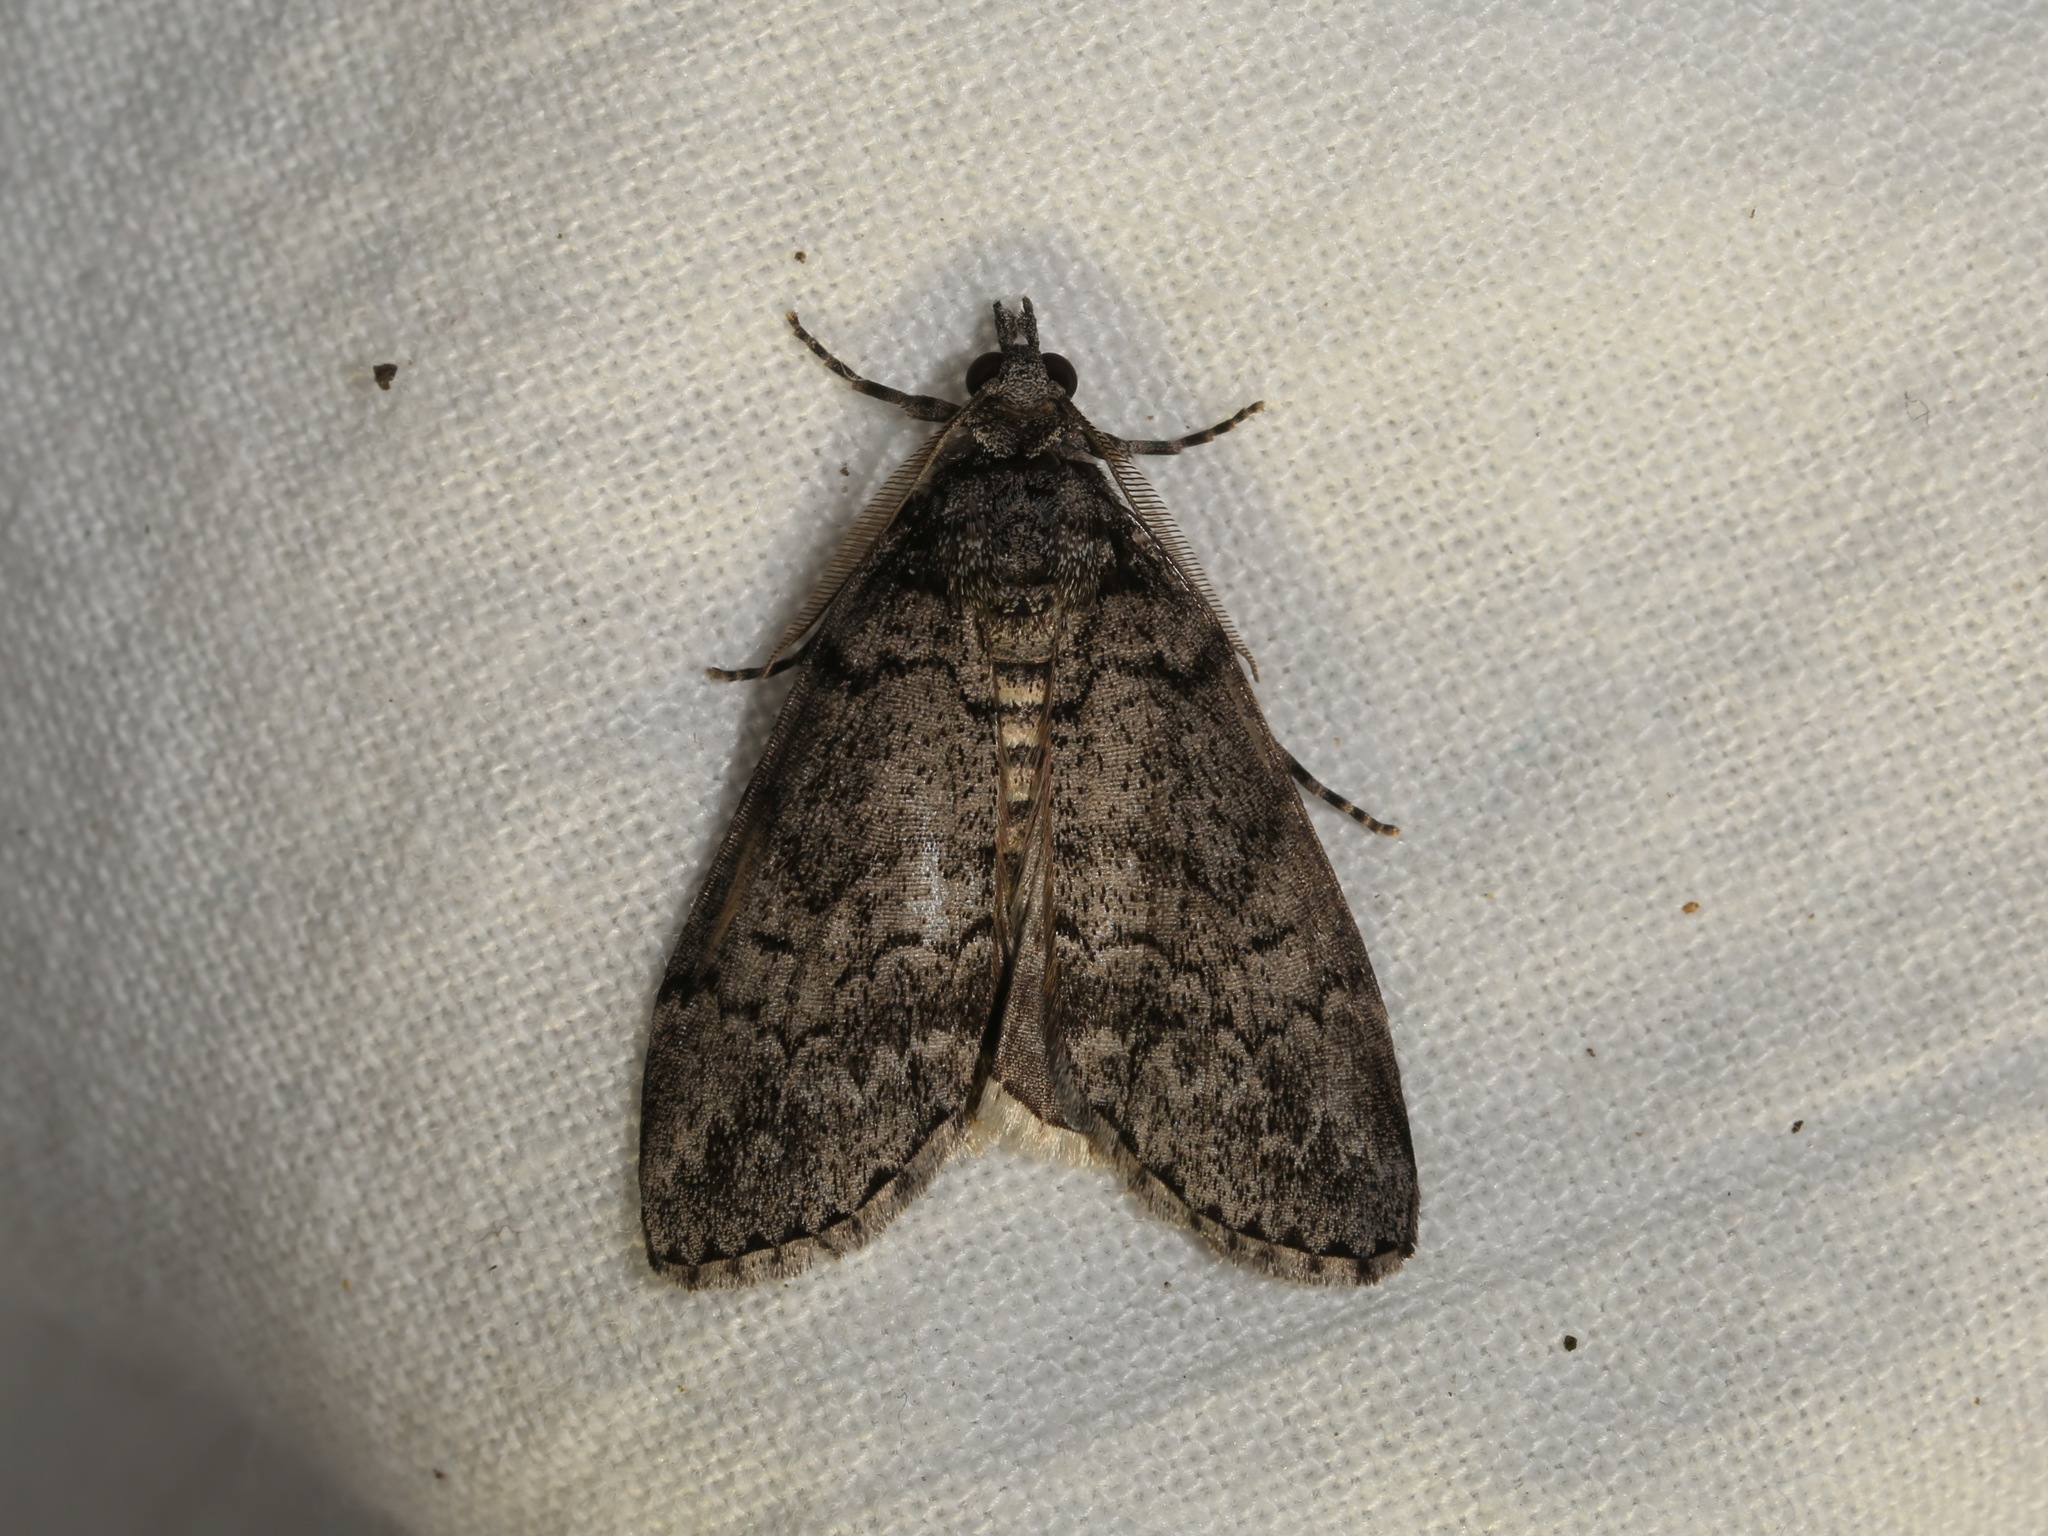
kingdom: Animalia
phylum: Arthropoda
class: Insecta
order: Lepidoptera
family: Geometridae
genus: Smyriodes
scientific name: Smyriodes trigramma
